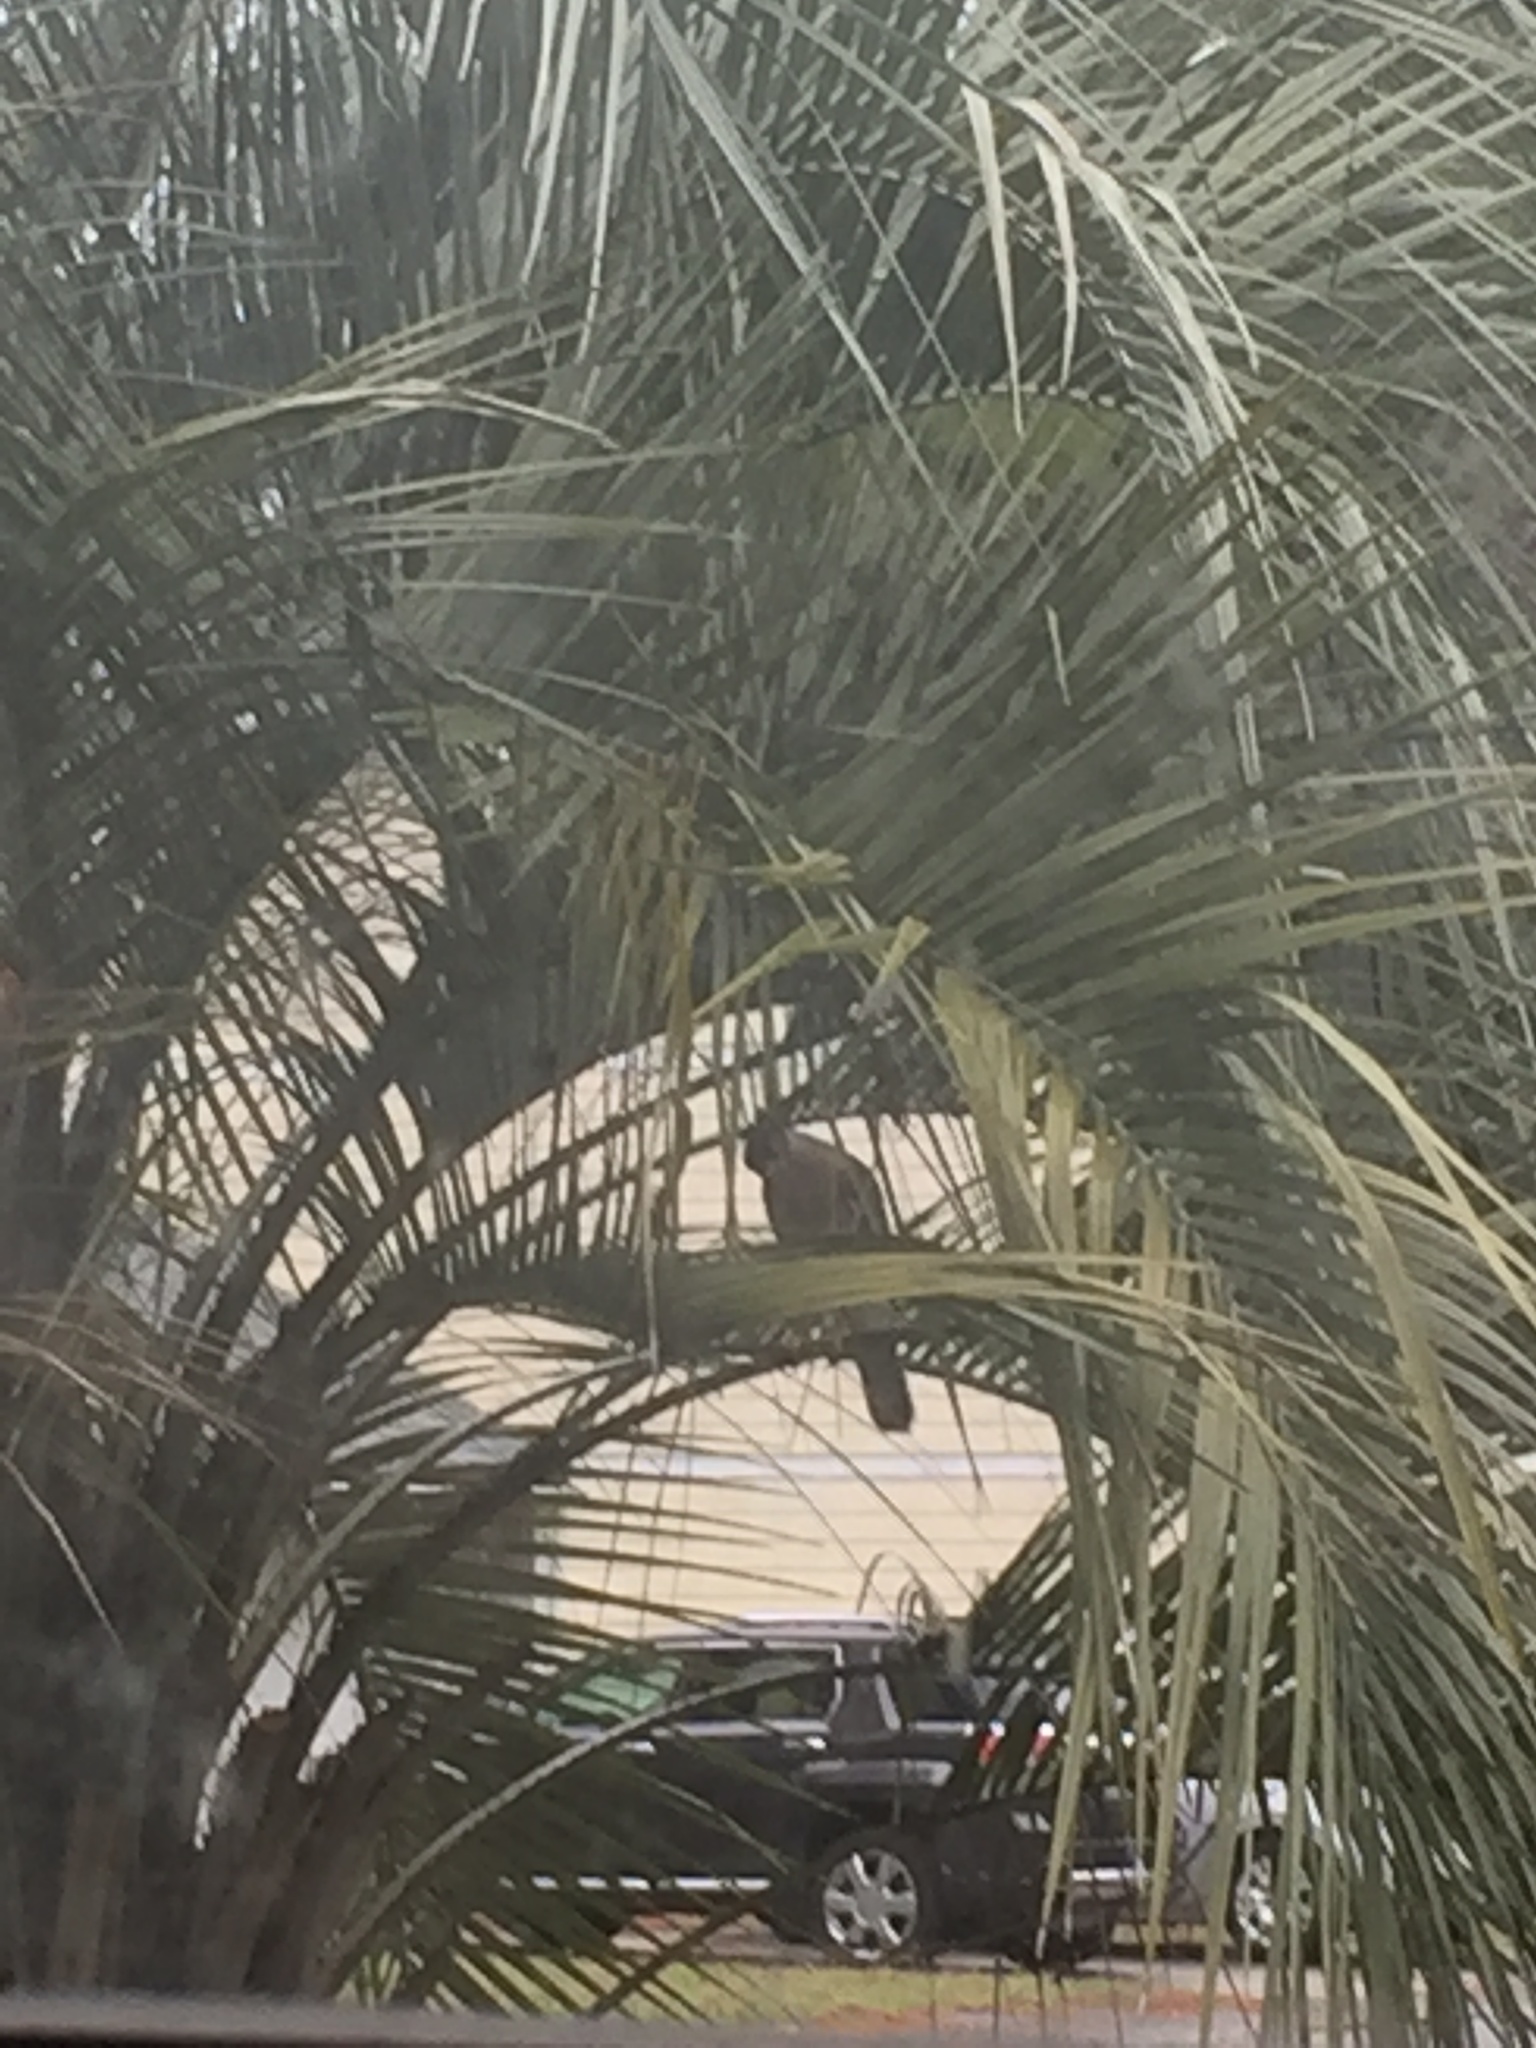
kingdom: Animalia
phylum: Chordata
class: Aves
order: Accipitriformes
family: Accipitridae
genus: Accipiter
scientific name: Accipiter
